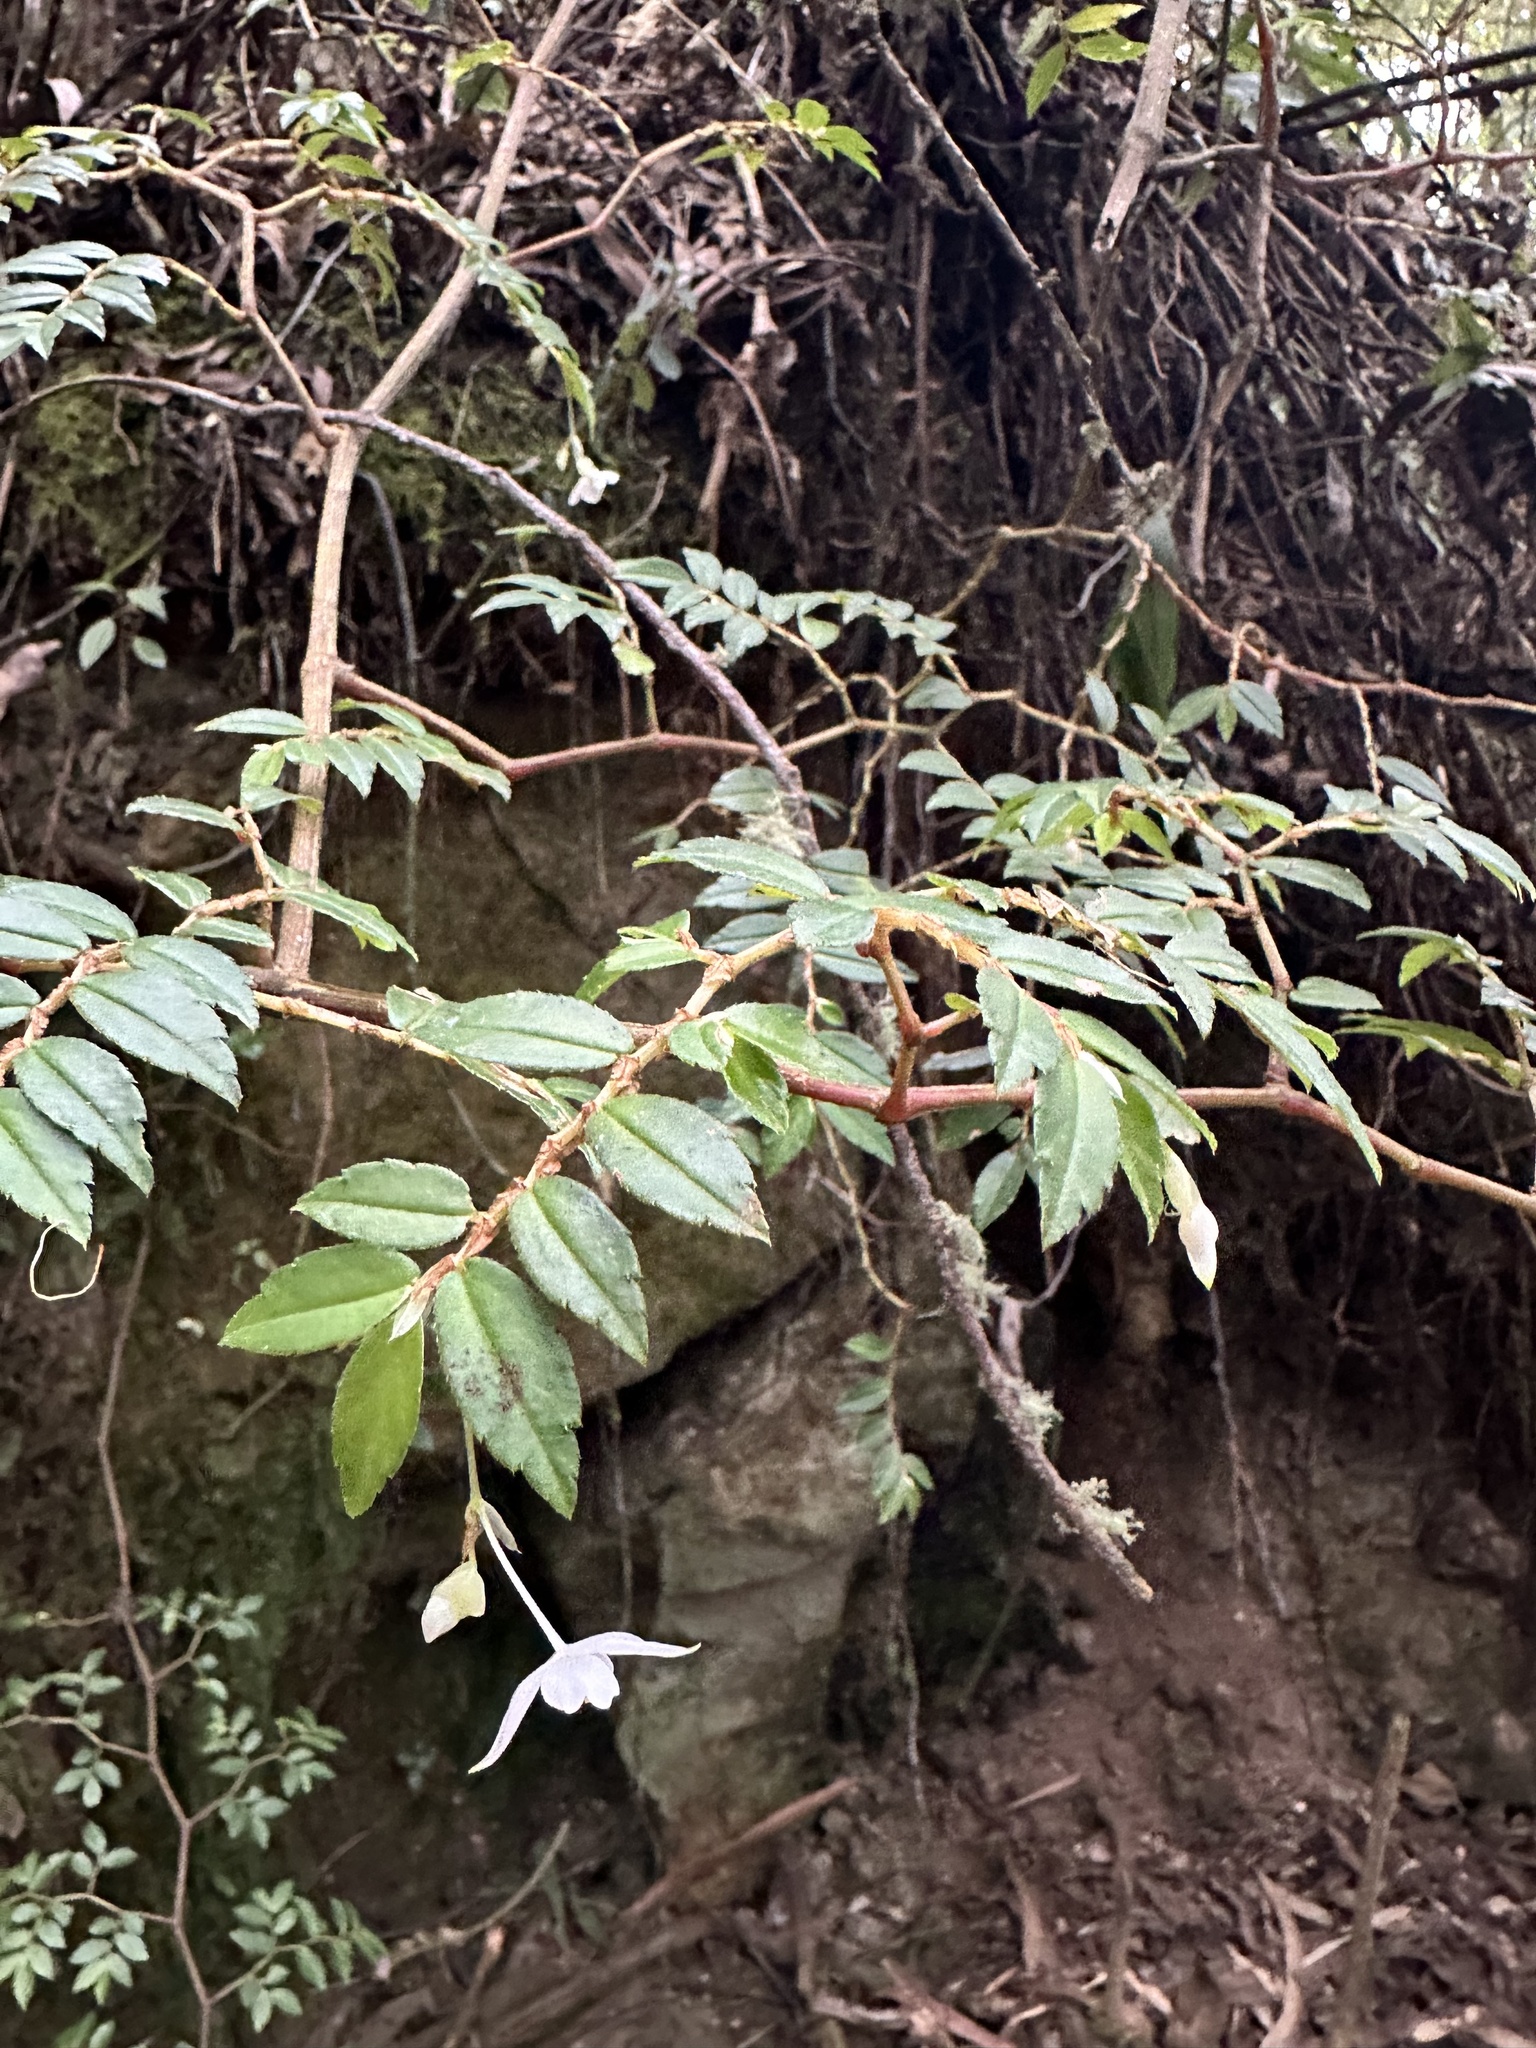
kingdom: Plantae
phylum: Tracheophyta
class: Magnoliopsida
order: Cucurbitales
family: Begoniaceae
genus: Begonia
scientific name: Begonia foliosa
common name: Fern begonia
